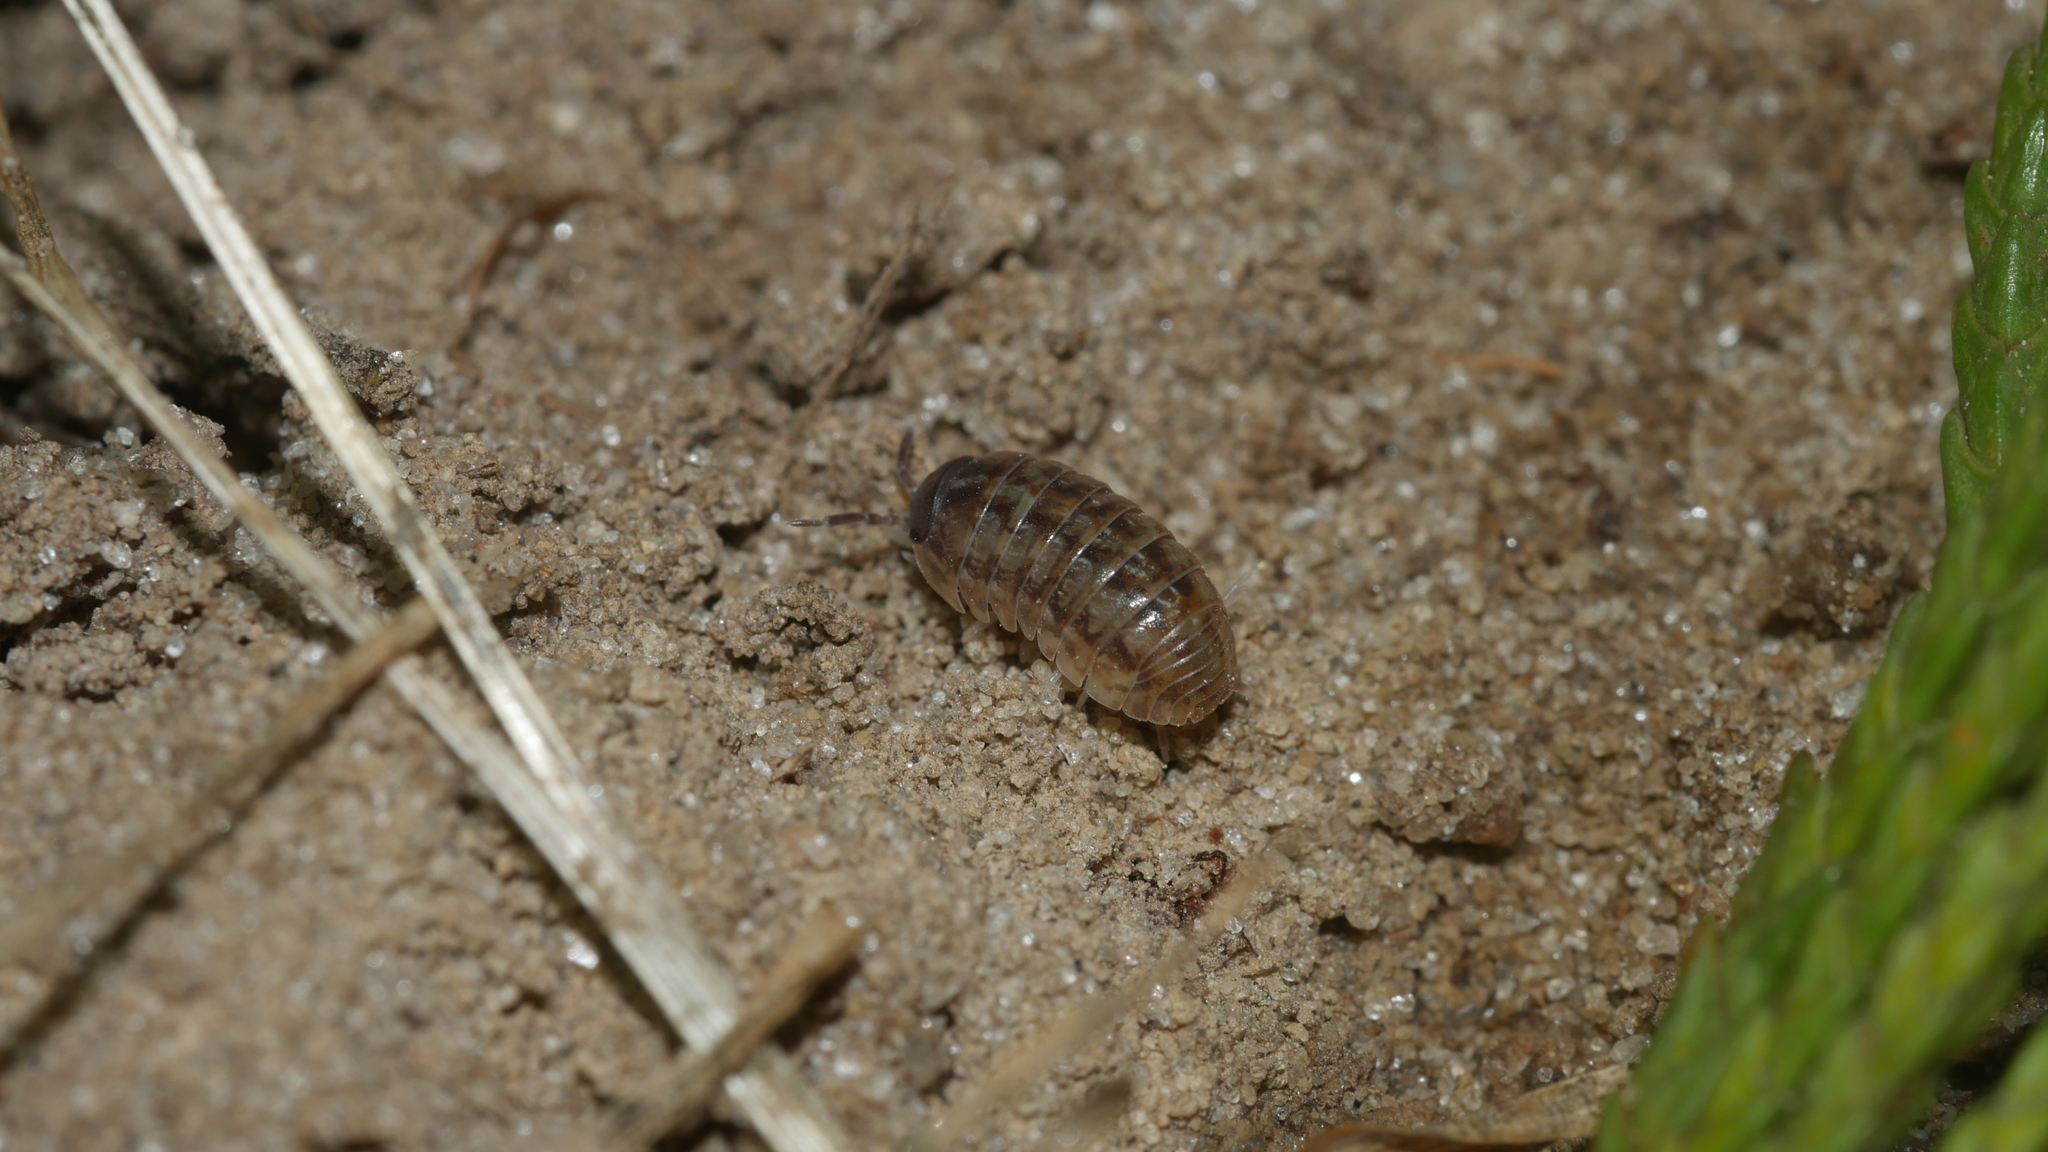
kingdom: Animalia
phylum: Arthropoda
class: Malacostraca
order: Isopoda
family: Armadillidiidae
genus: Armadillidium
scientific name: Armadillidium vulgare
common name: Common pill woodlouse
